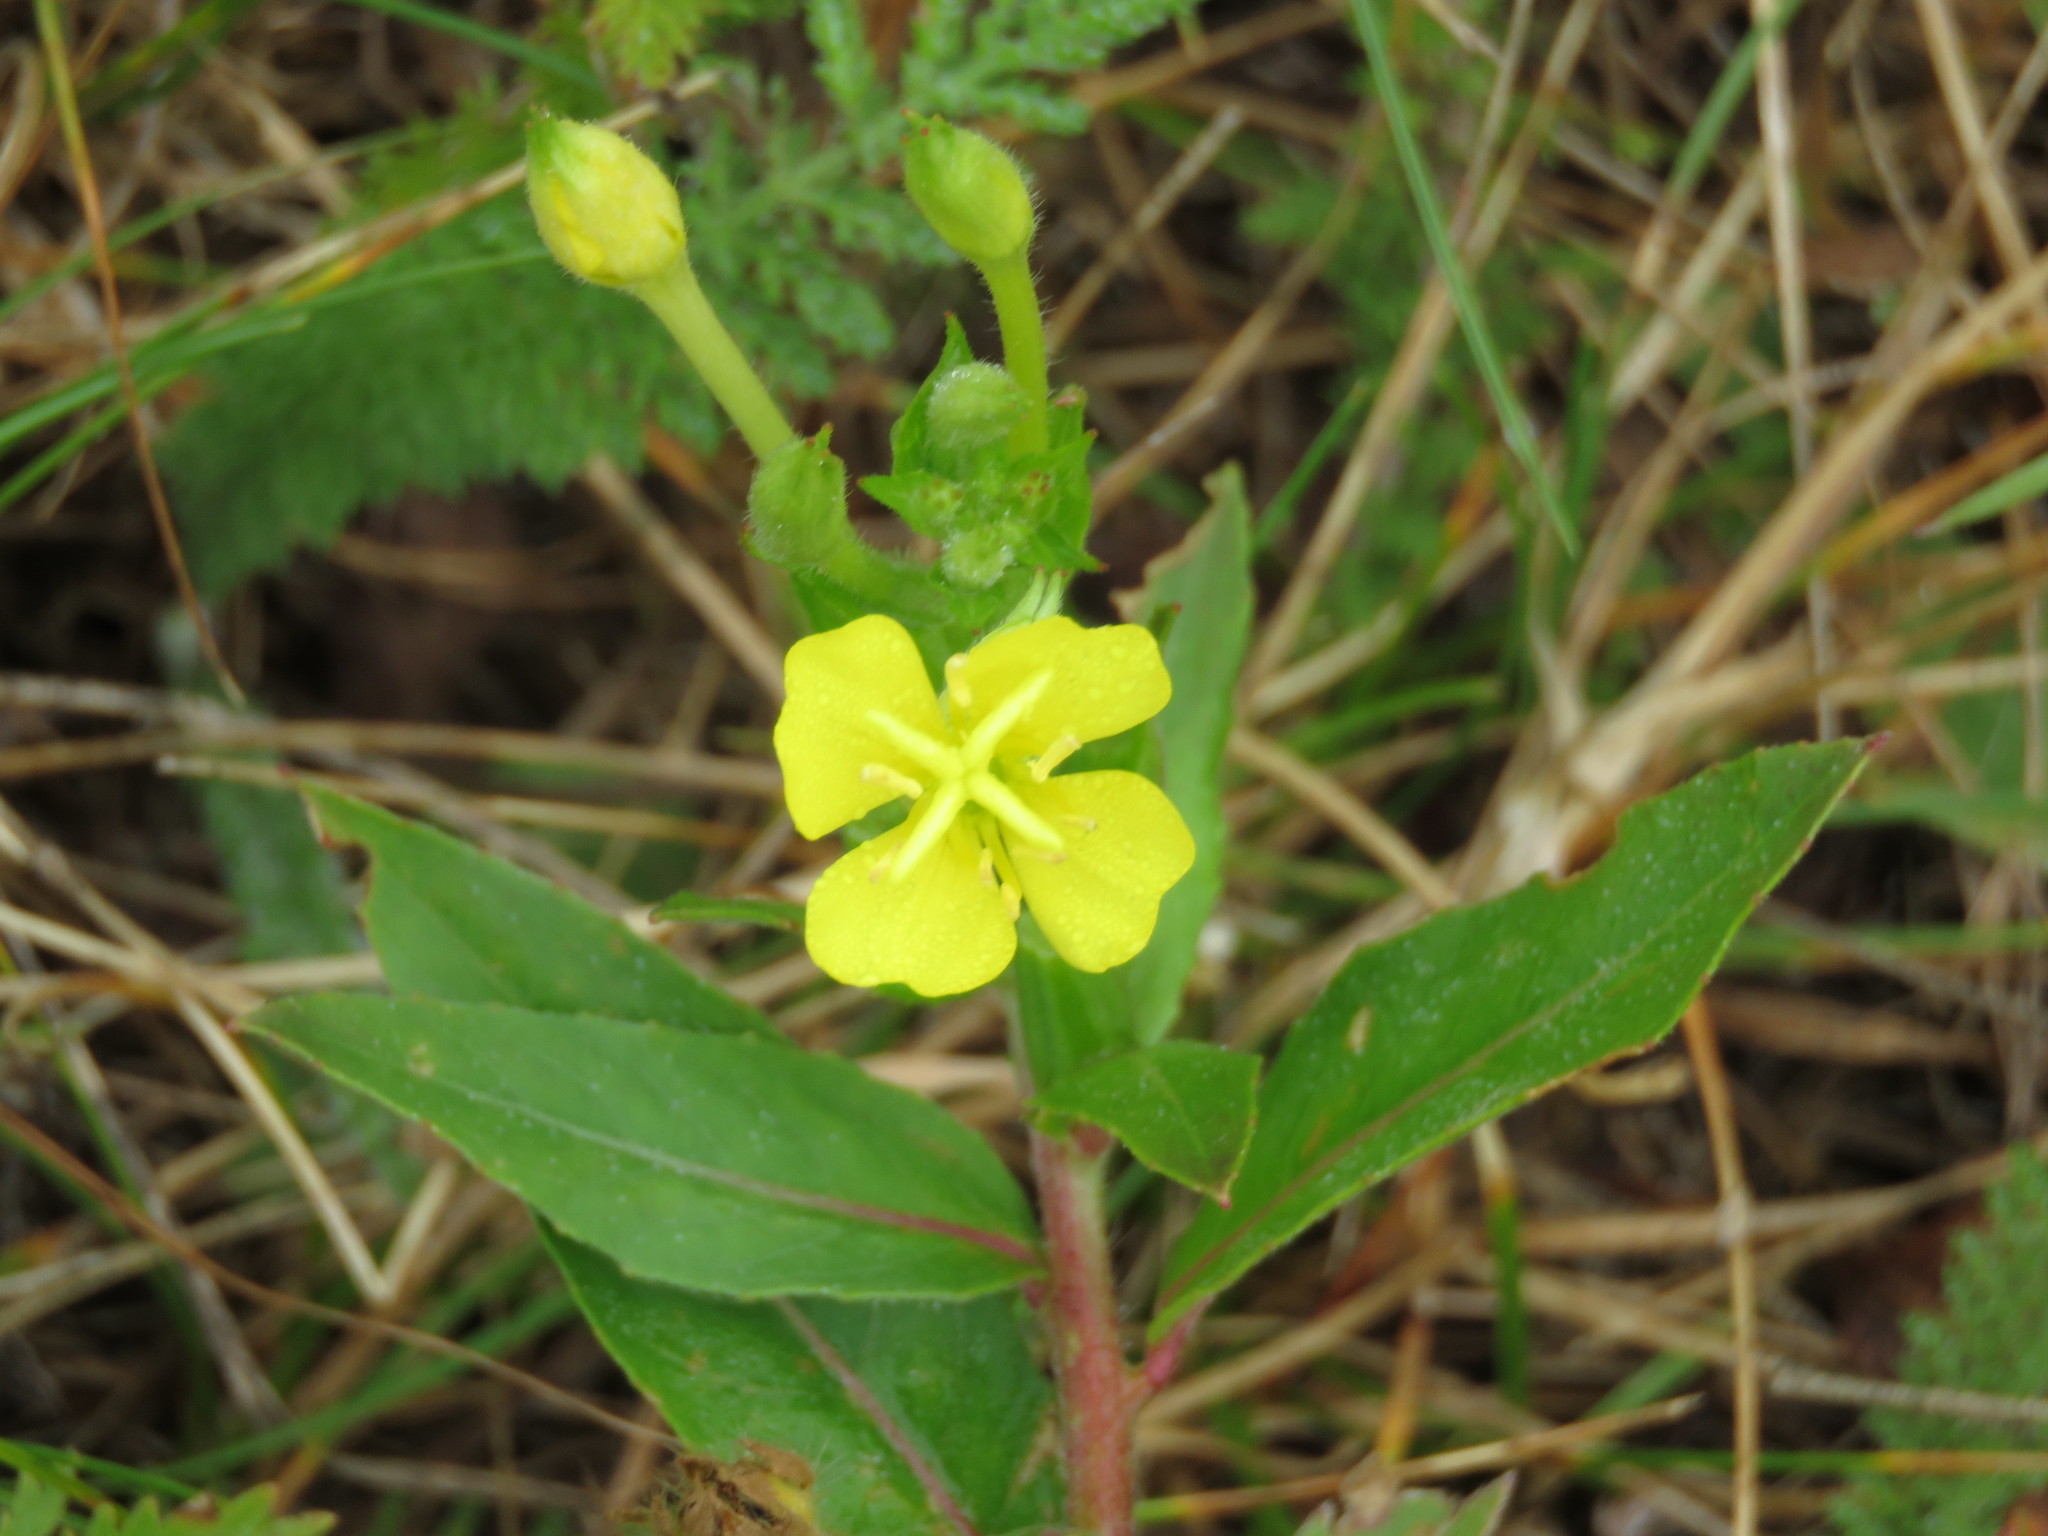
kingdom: Plantae
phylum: Tracheophyta
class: Magnoliopsida
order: Myrtales
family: Onagraceae
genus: Oenothera
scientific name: Oenothera biennis
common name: Common evening-primrose
